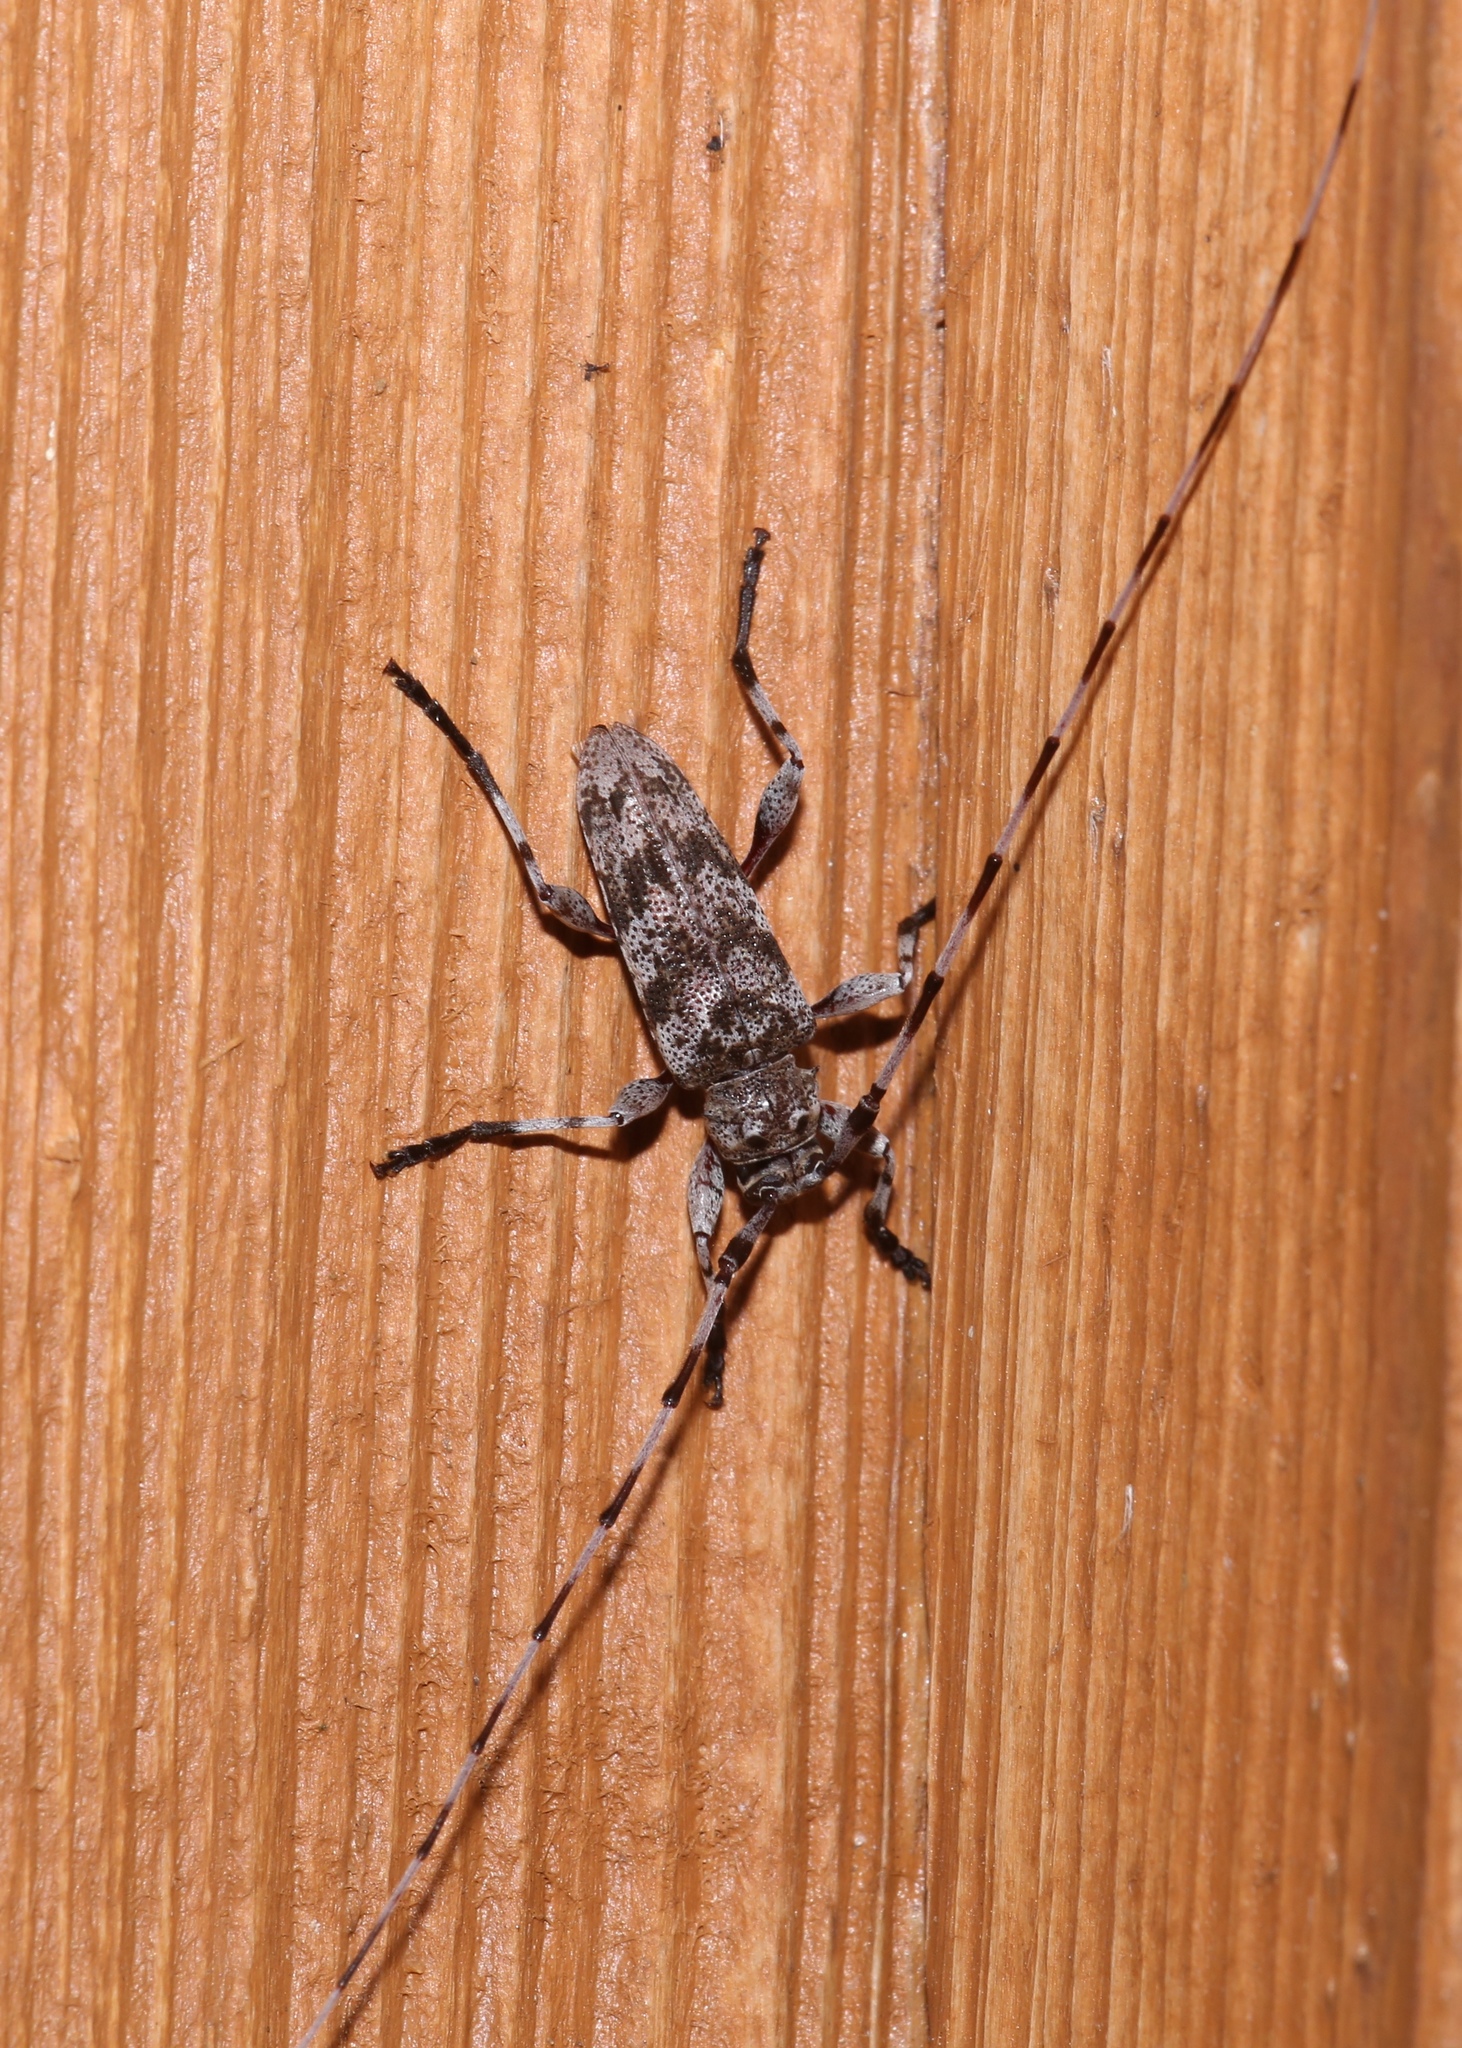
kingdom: Animalia
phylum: Arthropoda
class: Insecta
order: Coleoptera
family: Cerambycidae
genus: Acanthocinus
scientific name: Acanthocinus obsoletus
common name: Roundheaded borer
